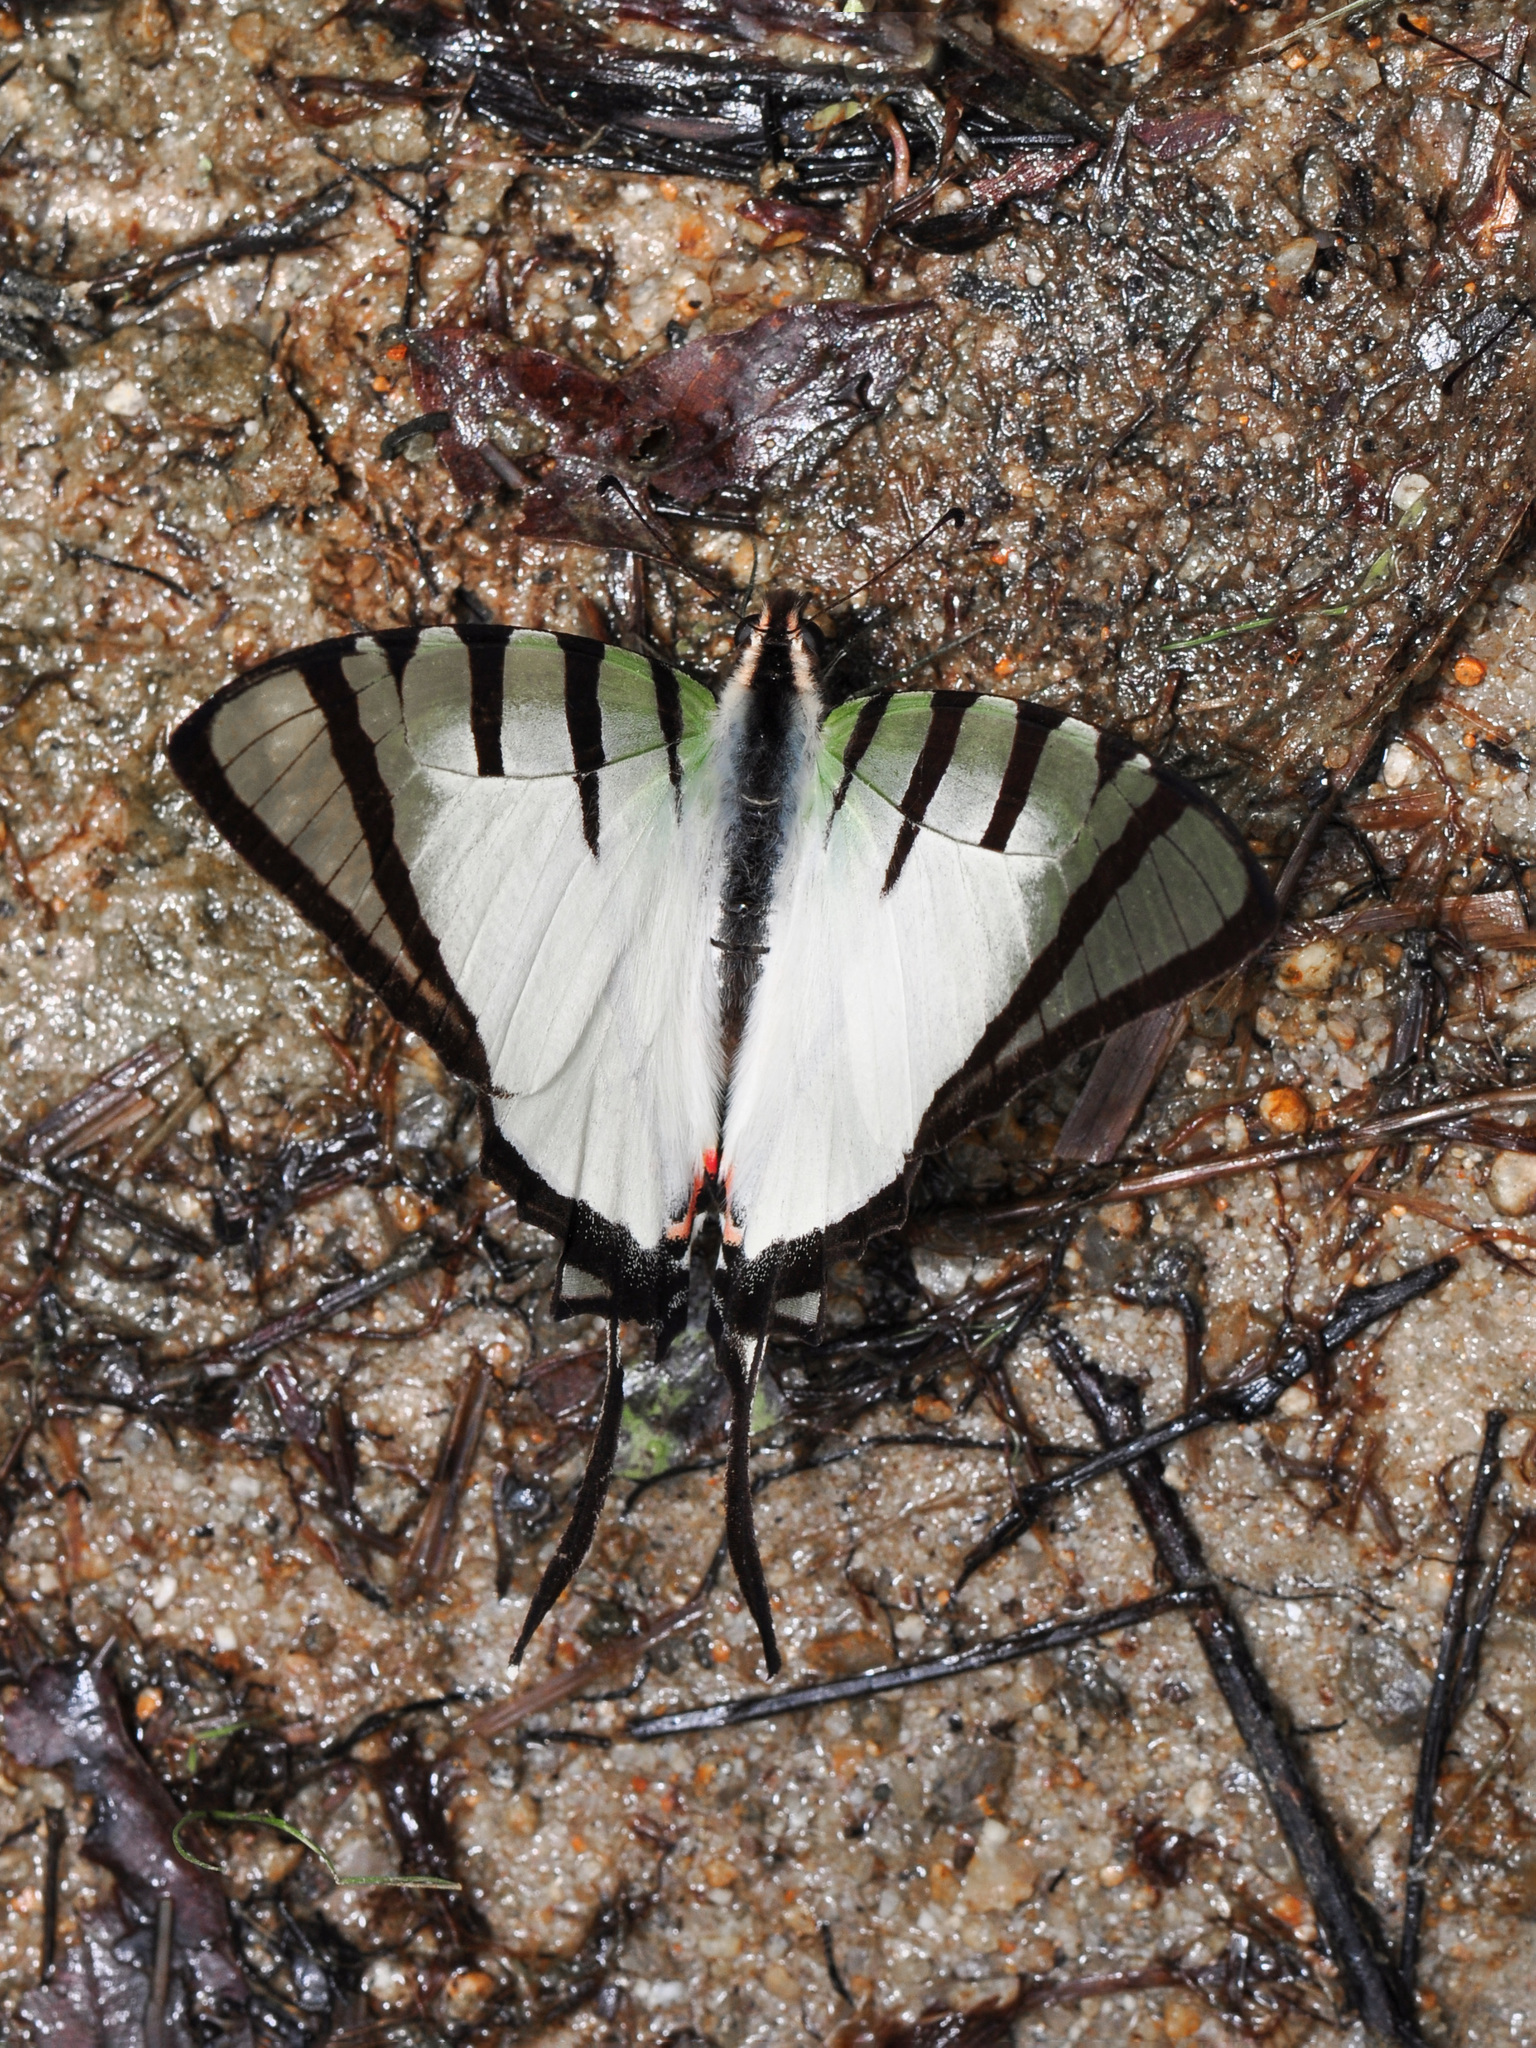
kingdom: Animalia
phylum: Arthropoda
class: Insecta
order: Lepidoptera
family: Papilionidae
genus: Graphium
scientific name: Graphium agetes
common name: Fourbar swordtail
